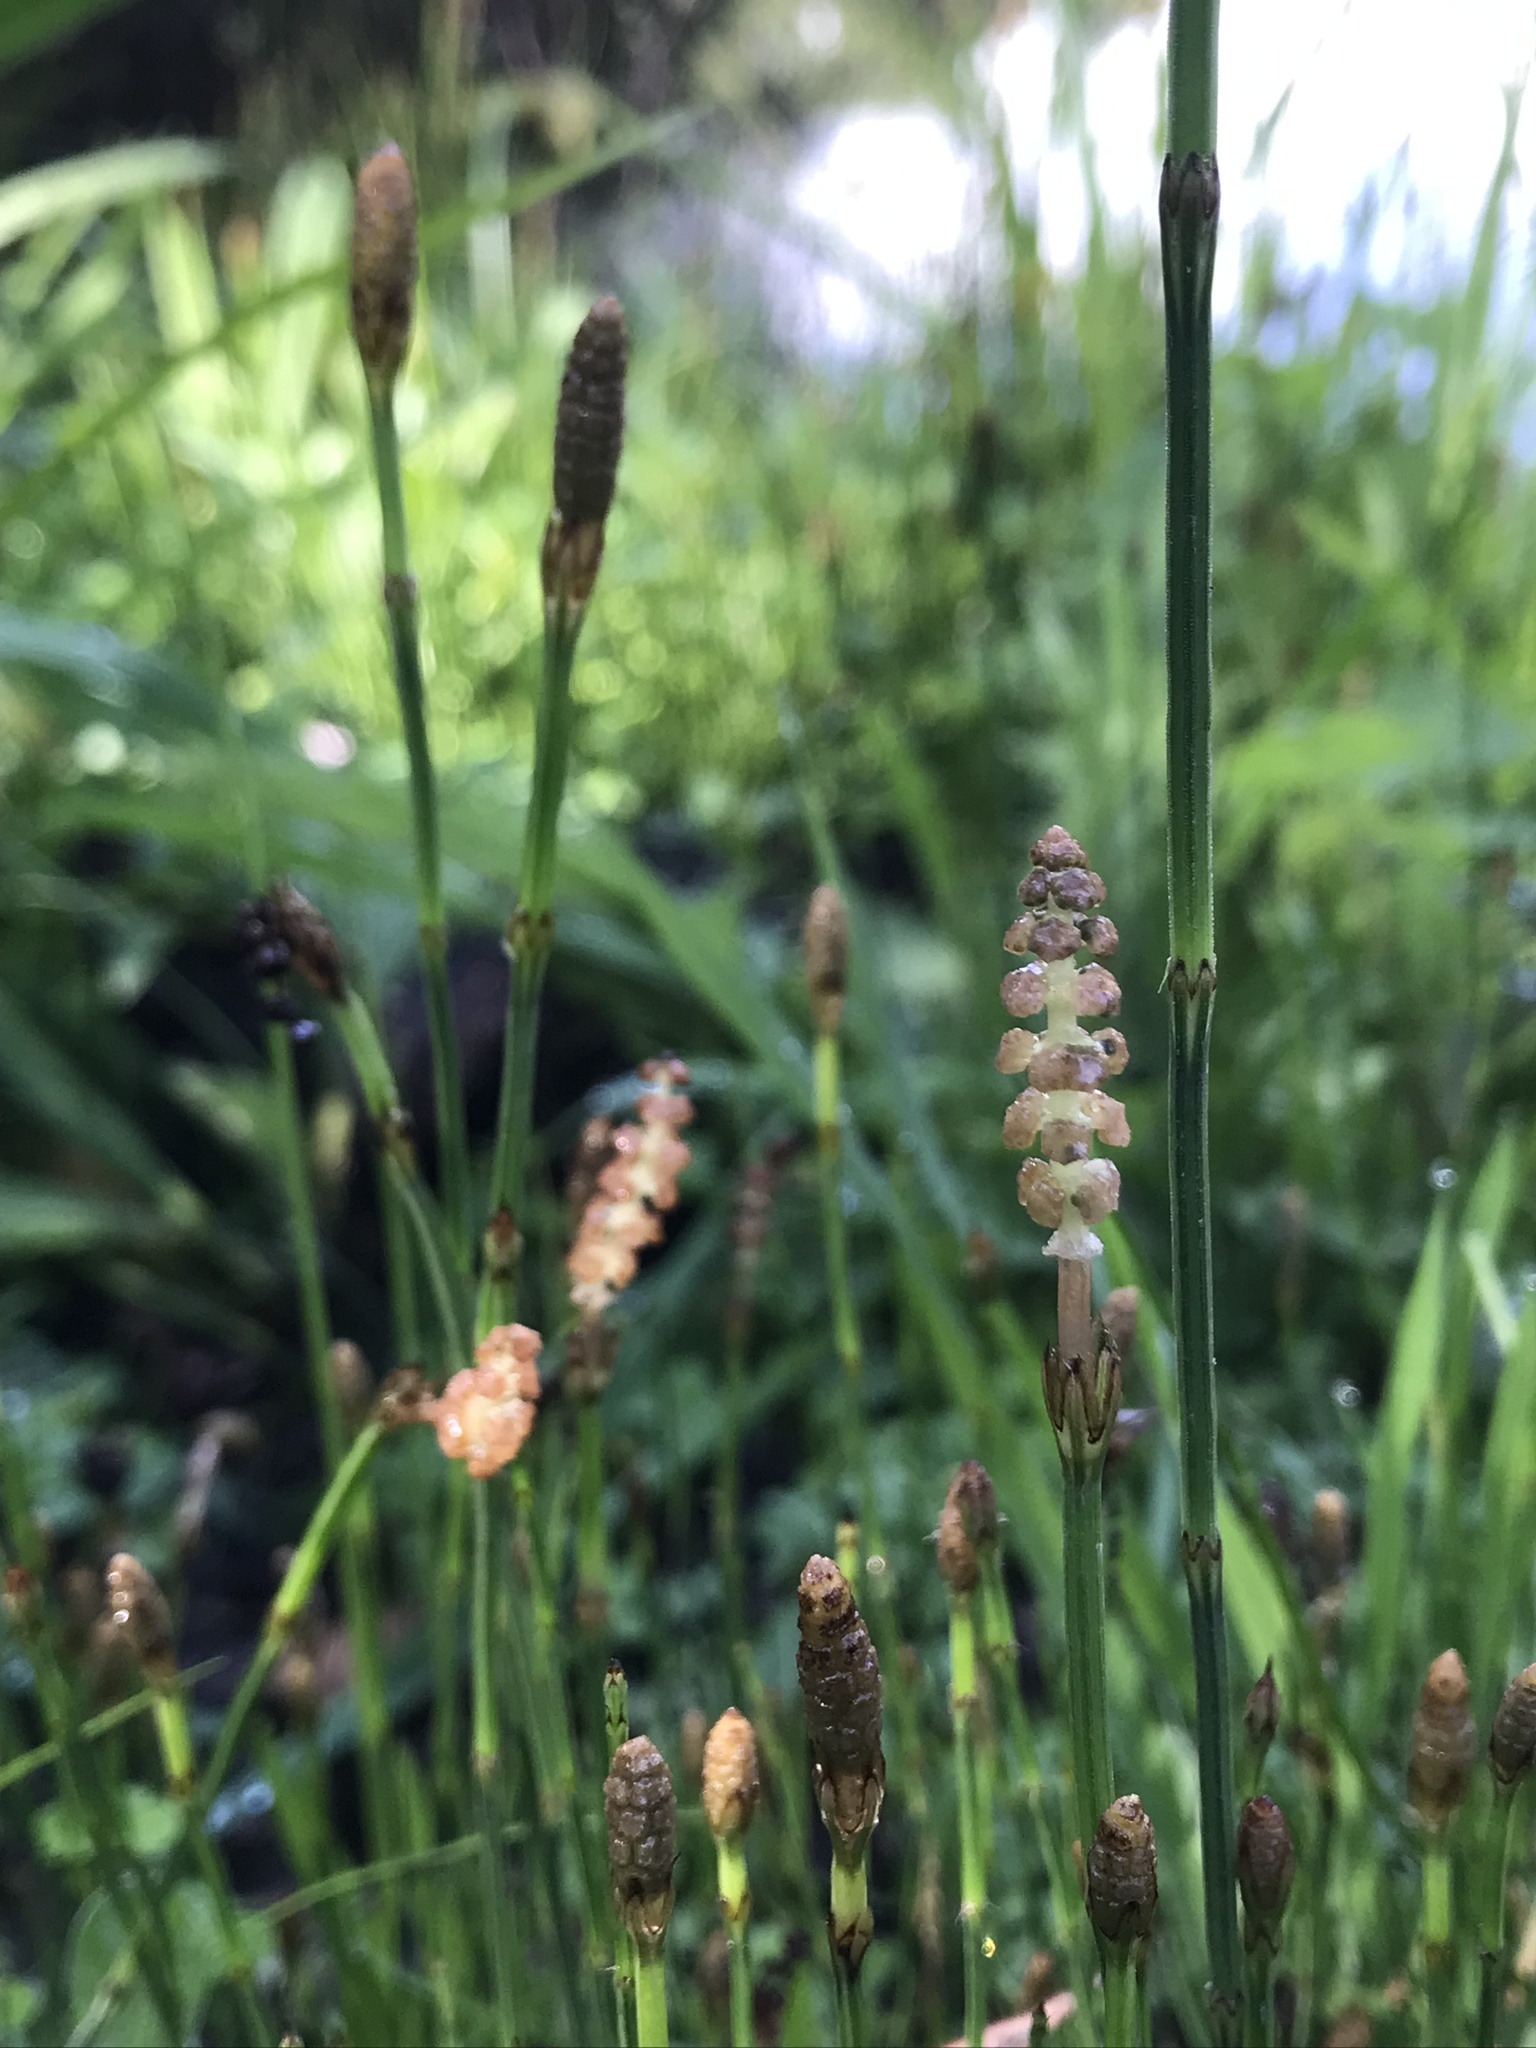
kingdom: Plantae
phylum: Tracheophyta
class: Polypodiopsida
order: Equisetales
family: Equisetaceae
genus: Equisetum
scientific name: Equisetum bogotense
